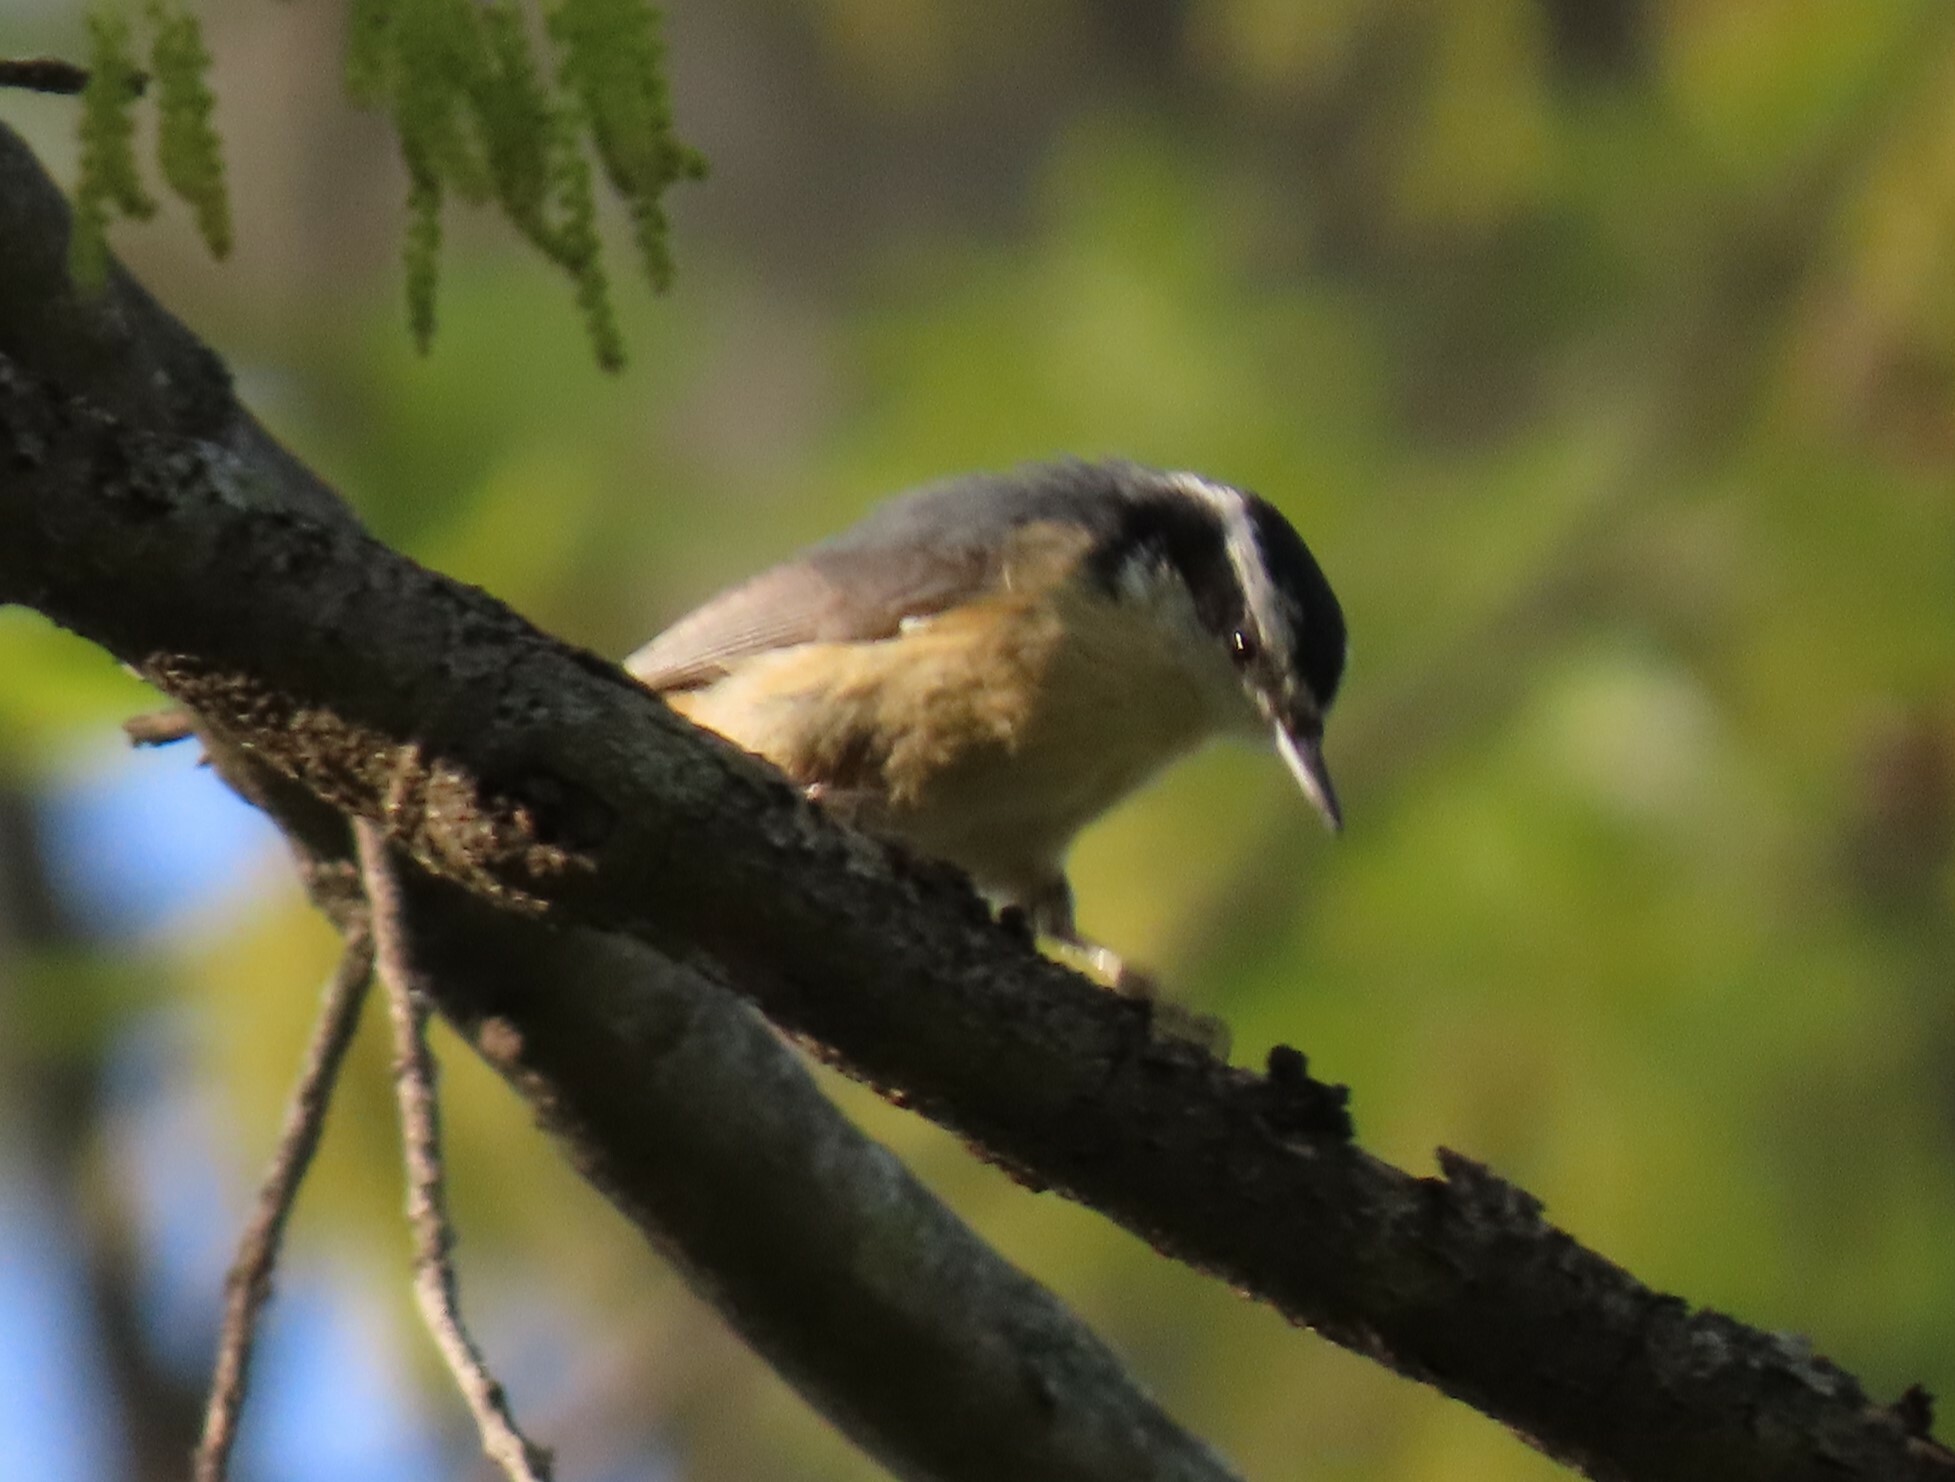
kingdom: Animalia
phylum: Chordata
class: Aves
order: Passeriformes
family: Sittidae
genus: Sitta
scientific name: Sitta canadensis
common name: Red-breasted nuthatch
